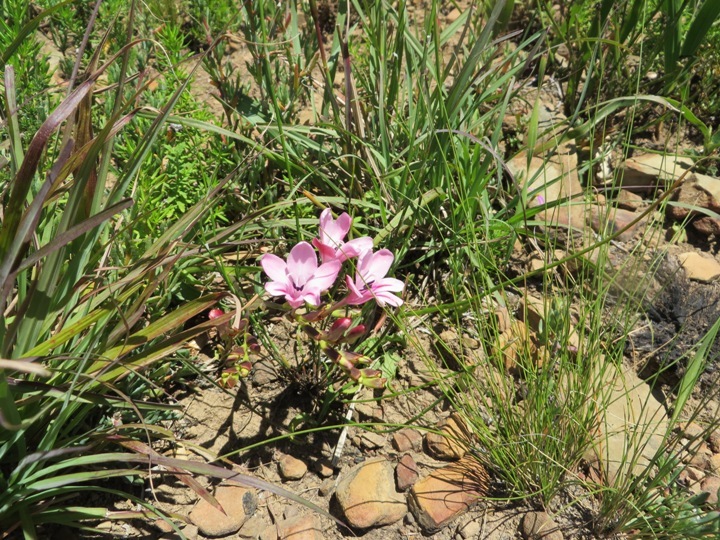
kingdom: Plantae
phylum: Tracheophyta
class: Liliopsida
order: Asparagales
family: Iridaceae
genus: Tritonia
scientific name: Tritonia undulata
